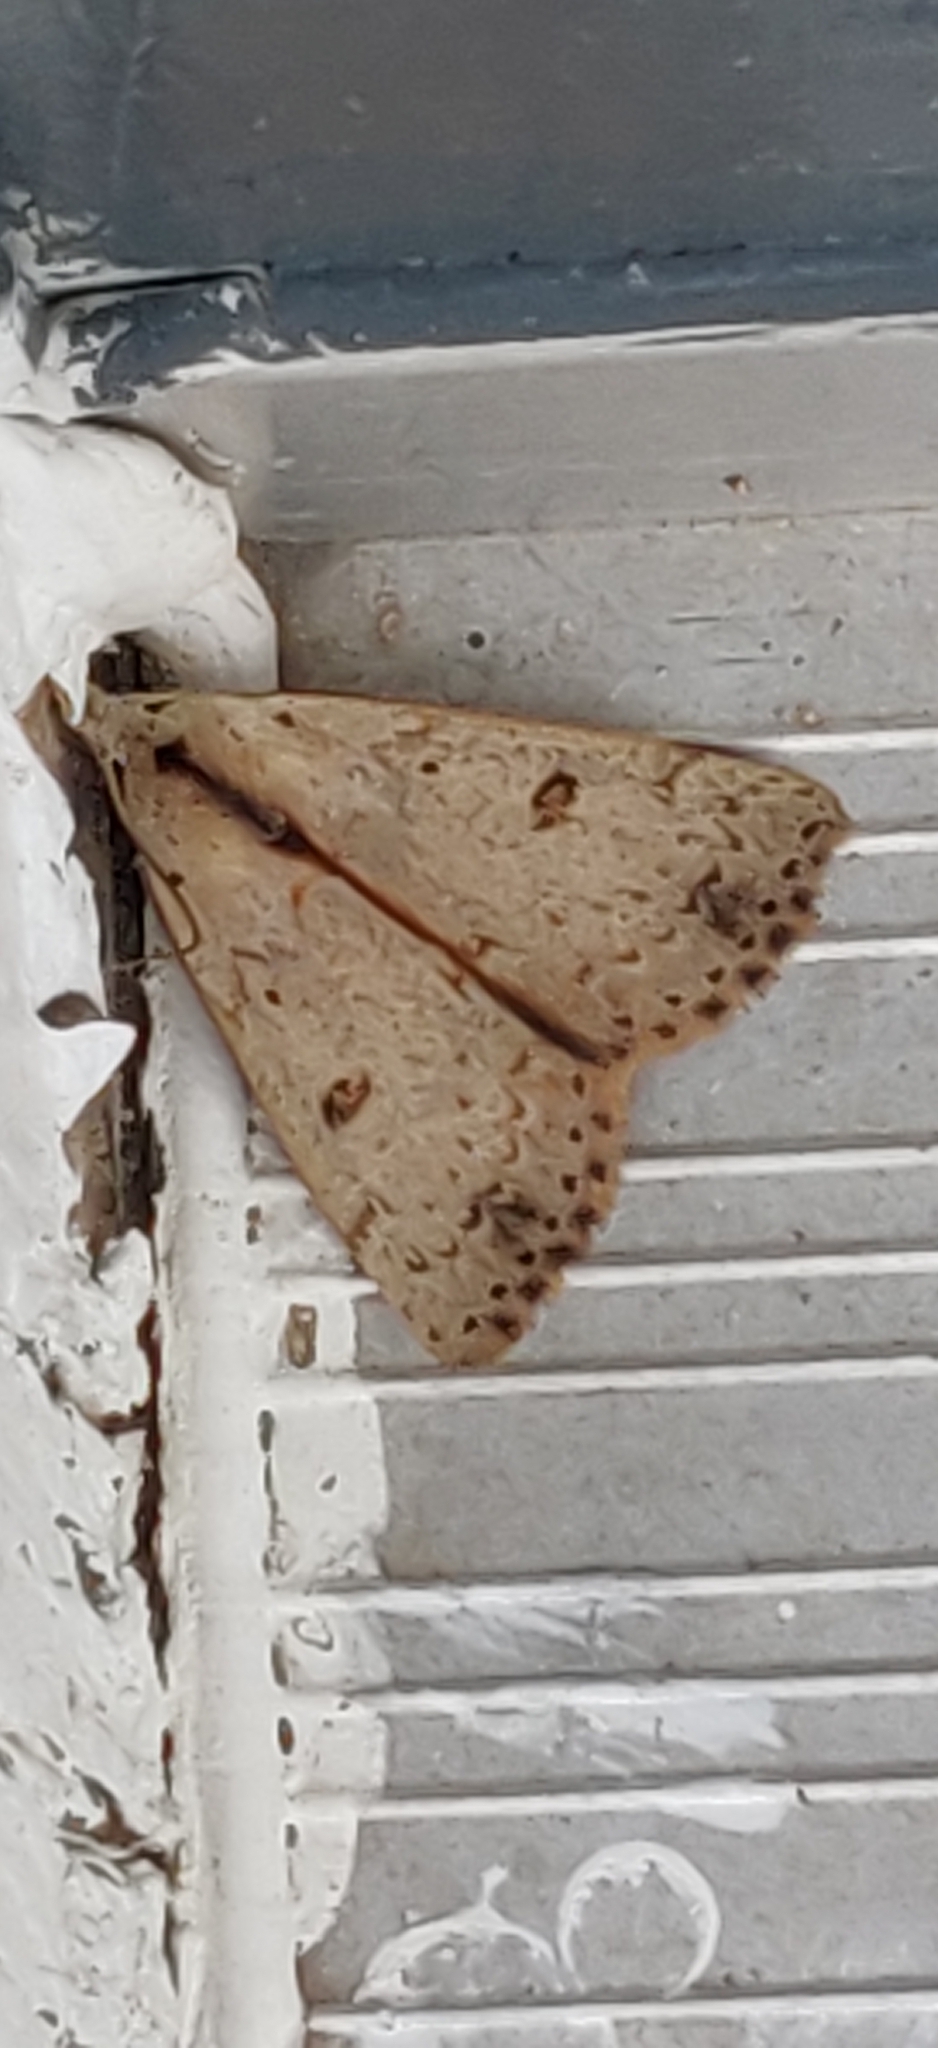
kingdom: Animalia
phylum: Arthropoda
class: Insecta
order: Lepidoptera
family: Erebidae
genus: Scolecocampa
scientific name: Scolecocampa liburna
